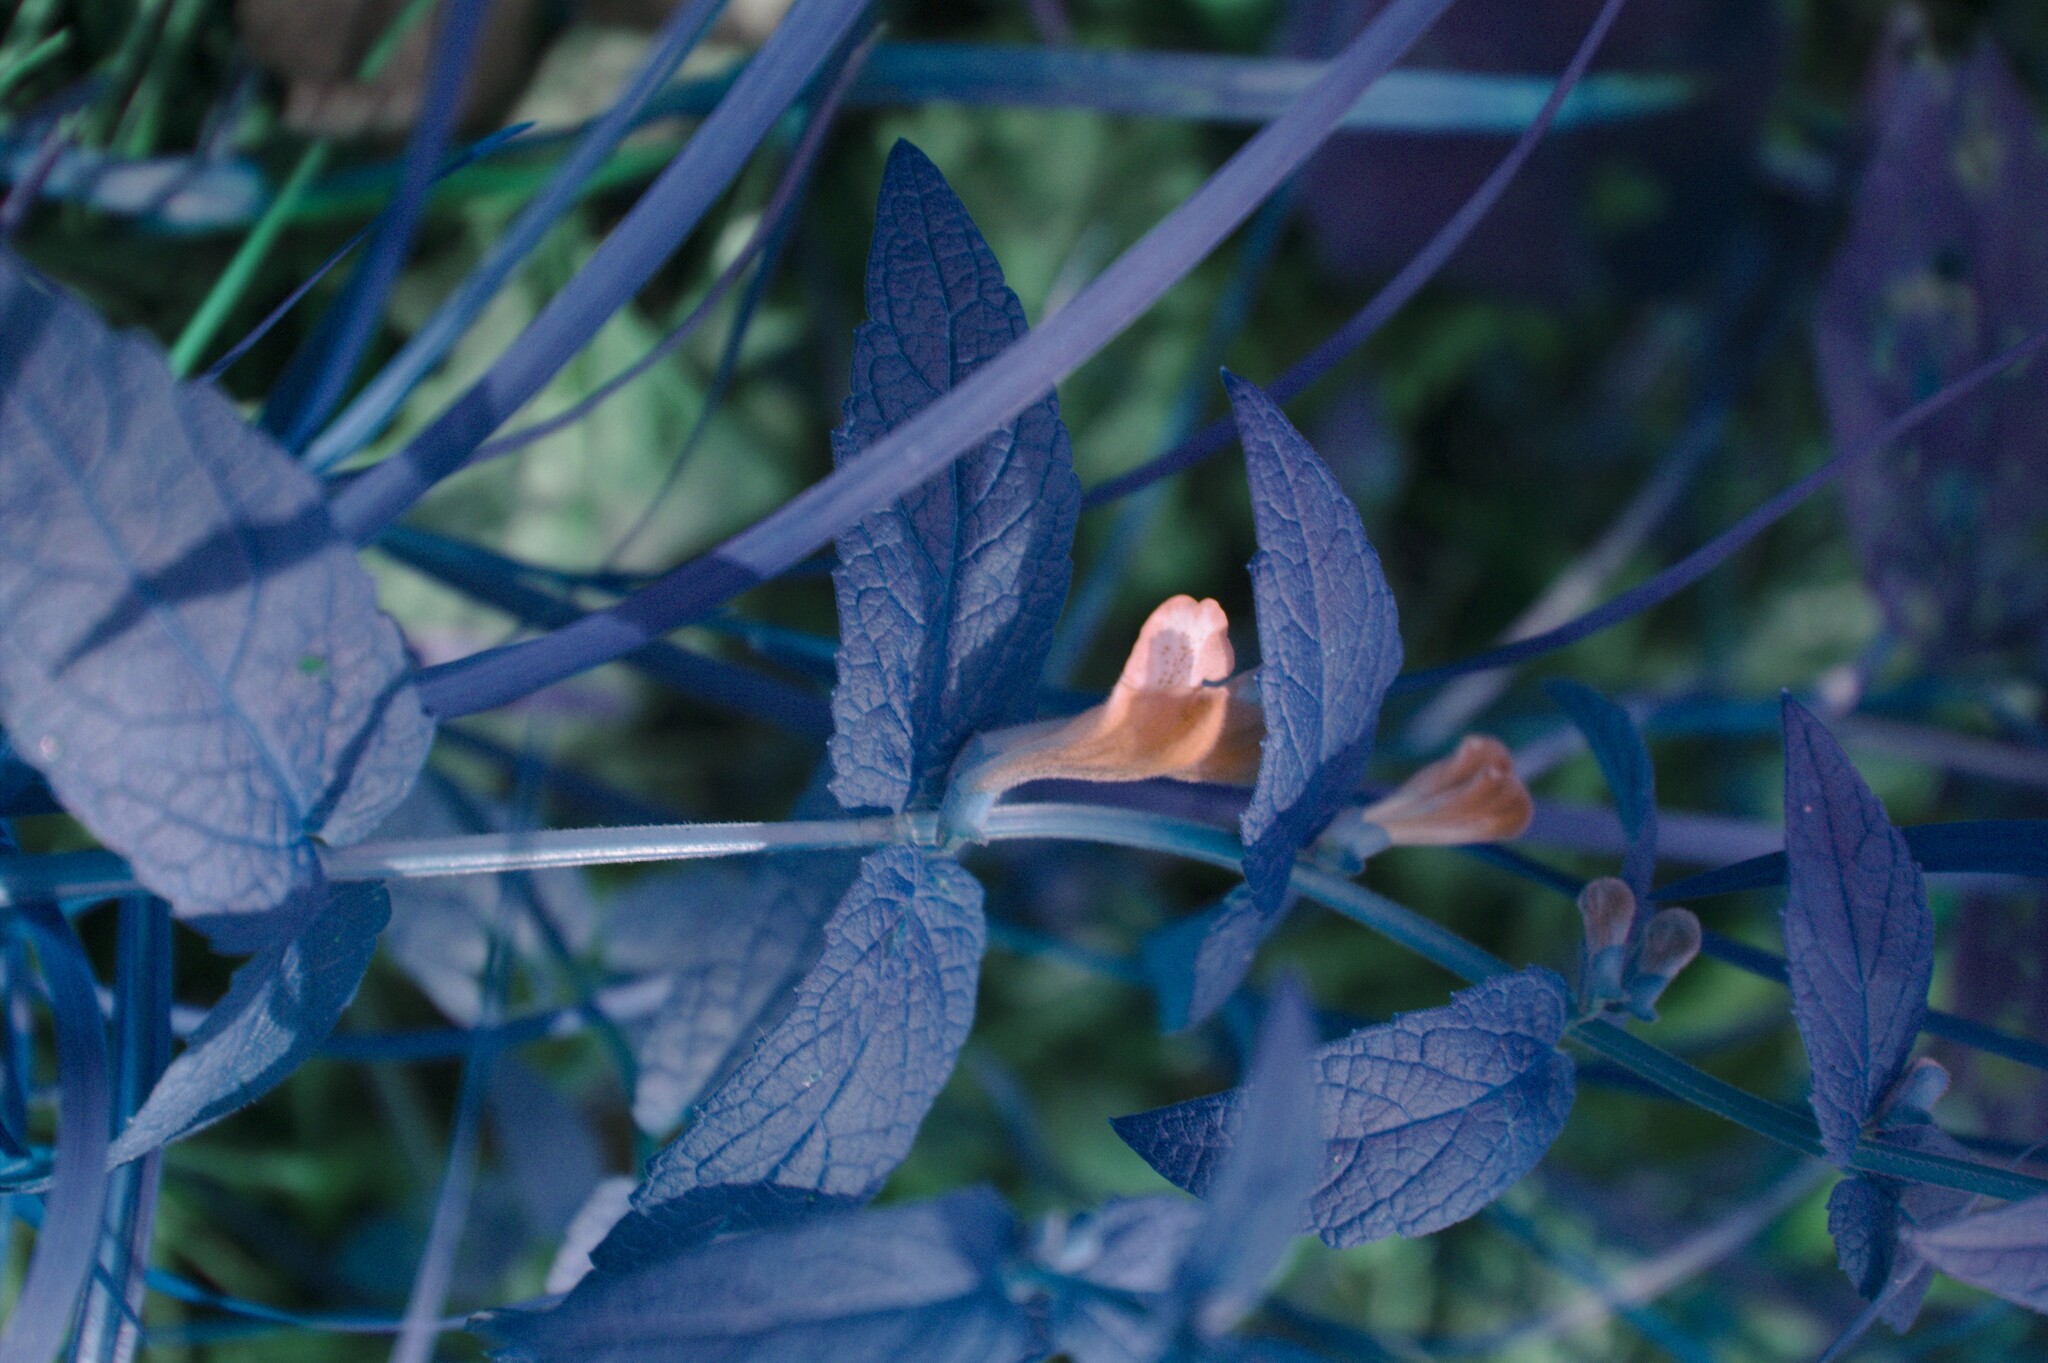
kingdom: Plantae
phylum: Tracheophyta
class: Magnoliopsida
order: Lamiales
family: Lamiaceae
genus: Scutellaria
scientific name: Scutellaria galericulata
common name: Skullcap
